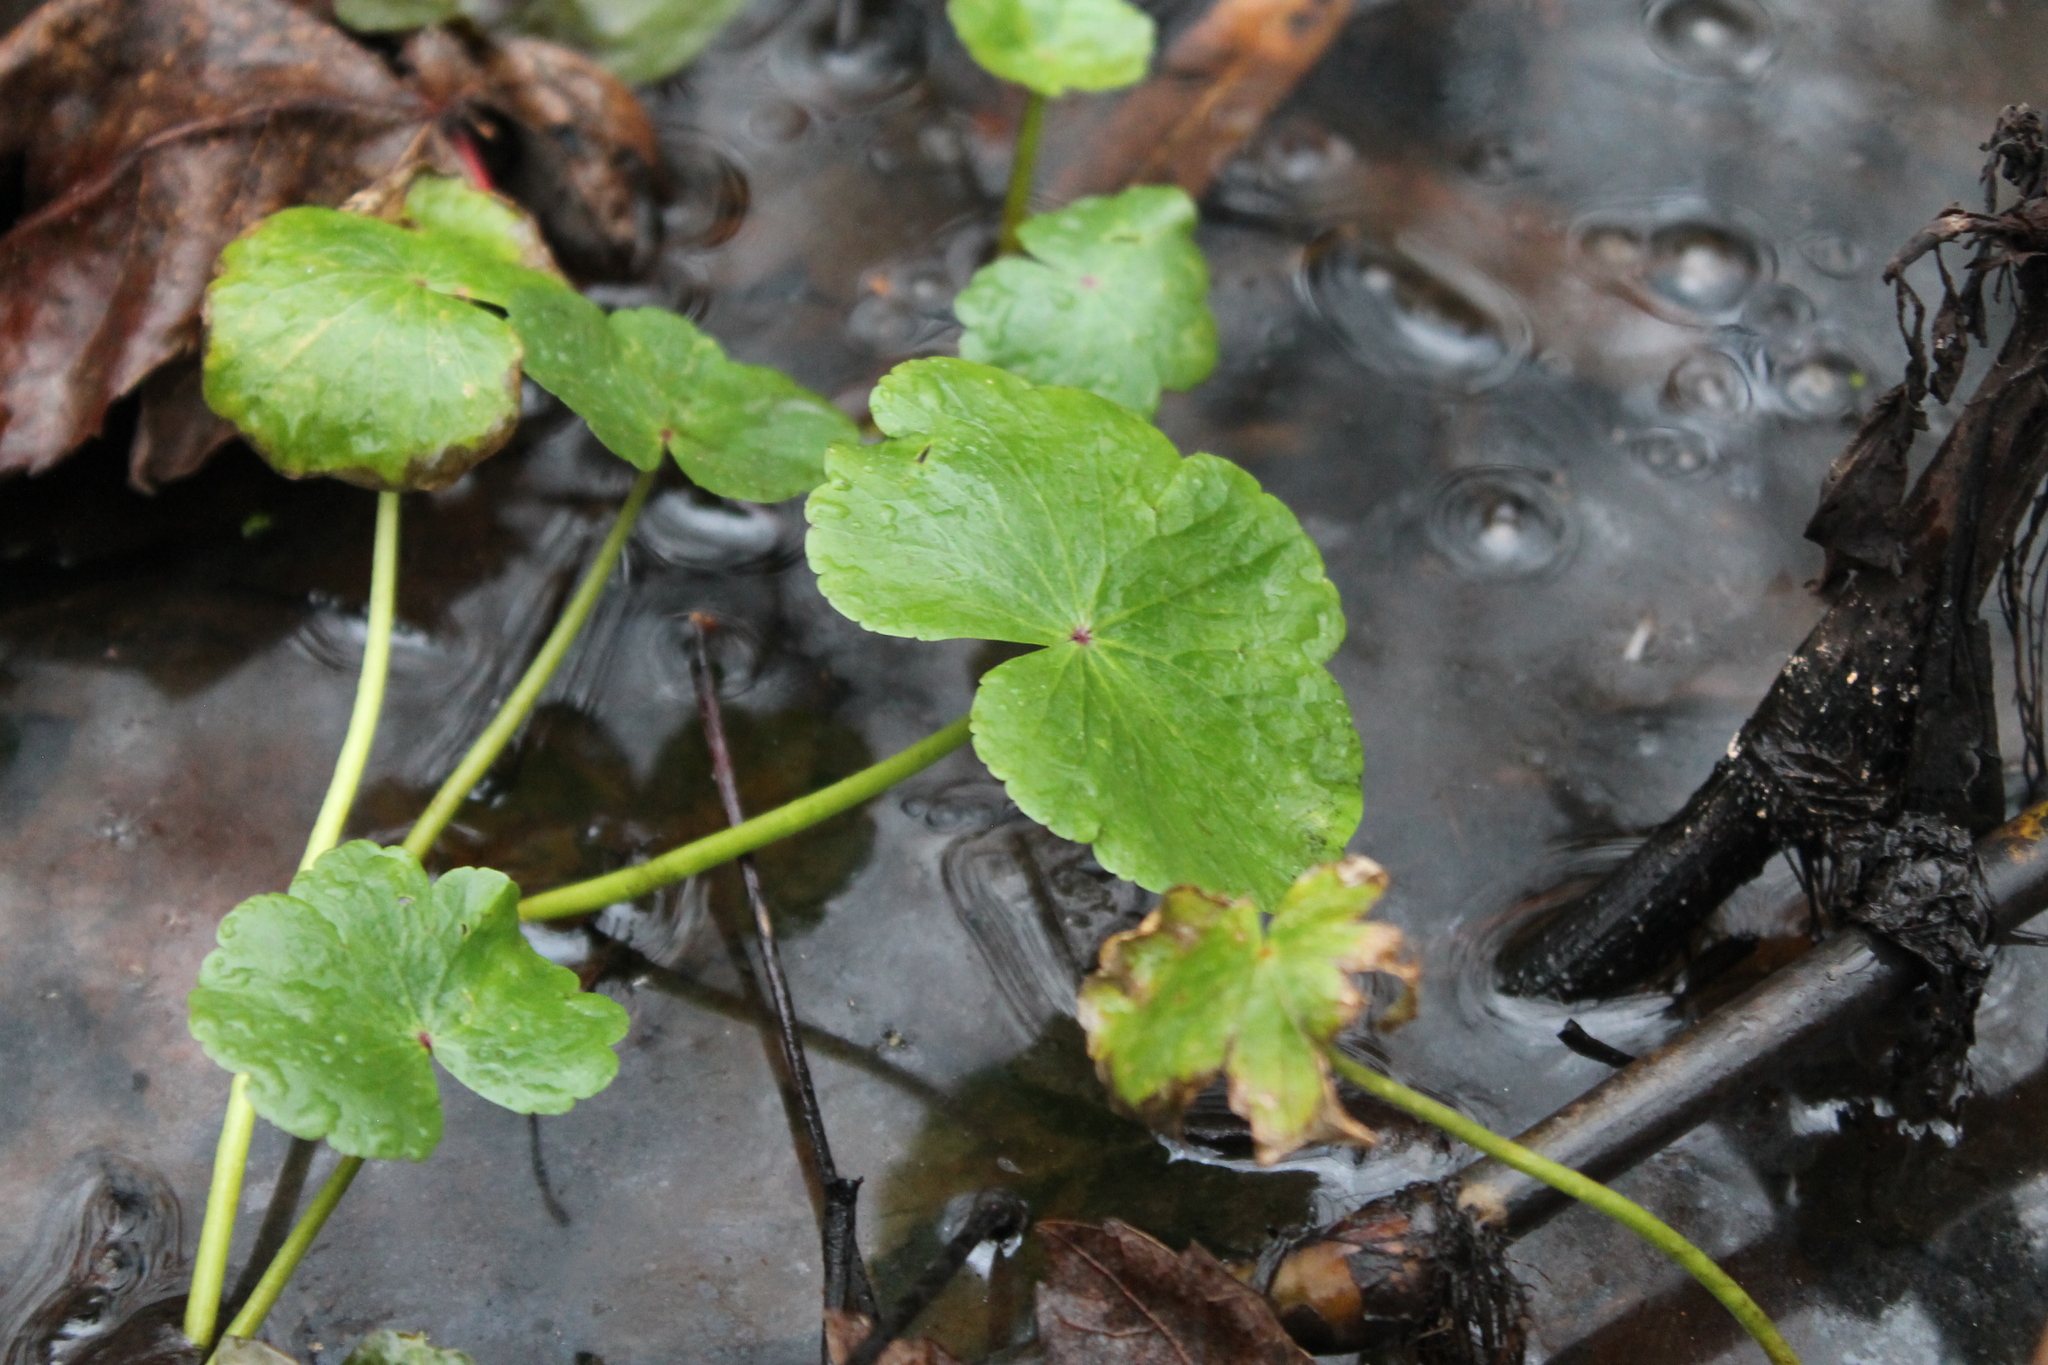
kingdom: Plantae
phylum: Tracheophyta
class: Magnoliopsida
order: Apiales
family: Araliaceae
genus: Hydrocotyle
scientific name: Hydrocotyle ranunculoides
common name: Floating pennywort
